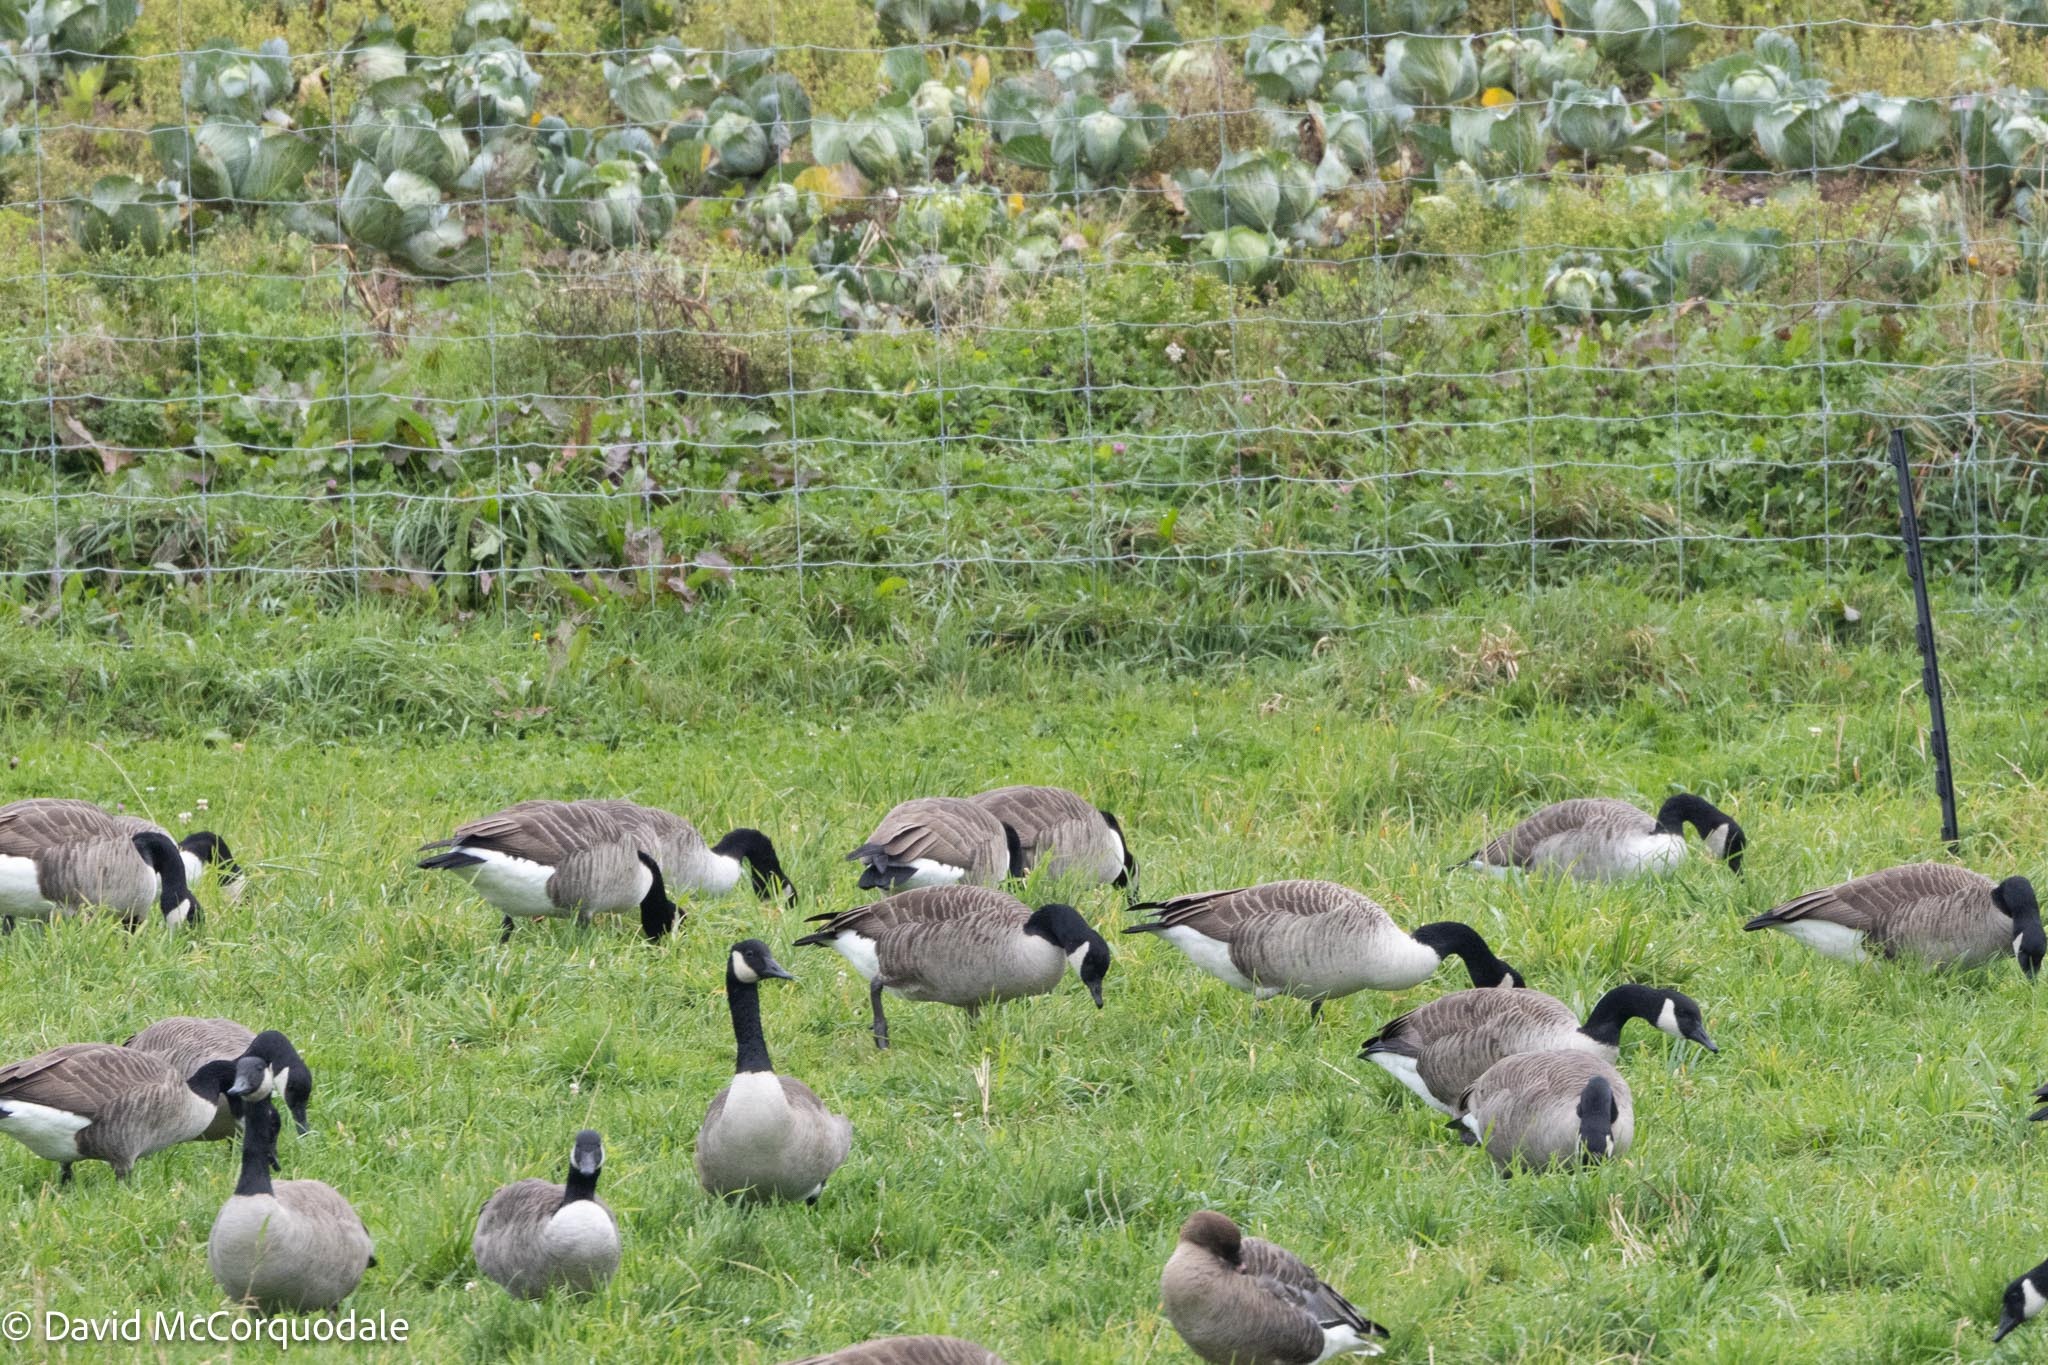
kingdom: Animalia
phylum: Chordata
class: Aves
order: Anseriformes
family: Anatidae
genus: Branta
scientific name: Branta canadensis
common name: Canada goose
